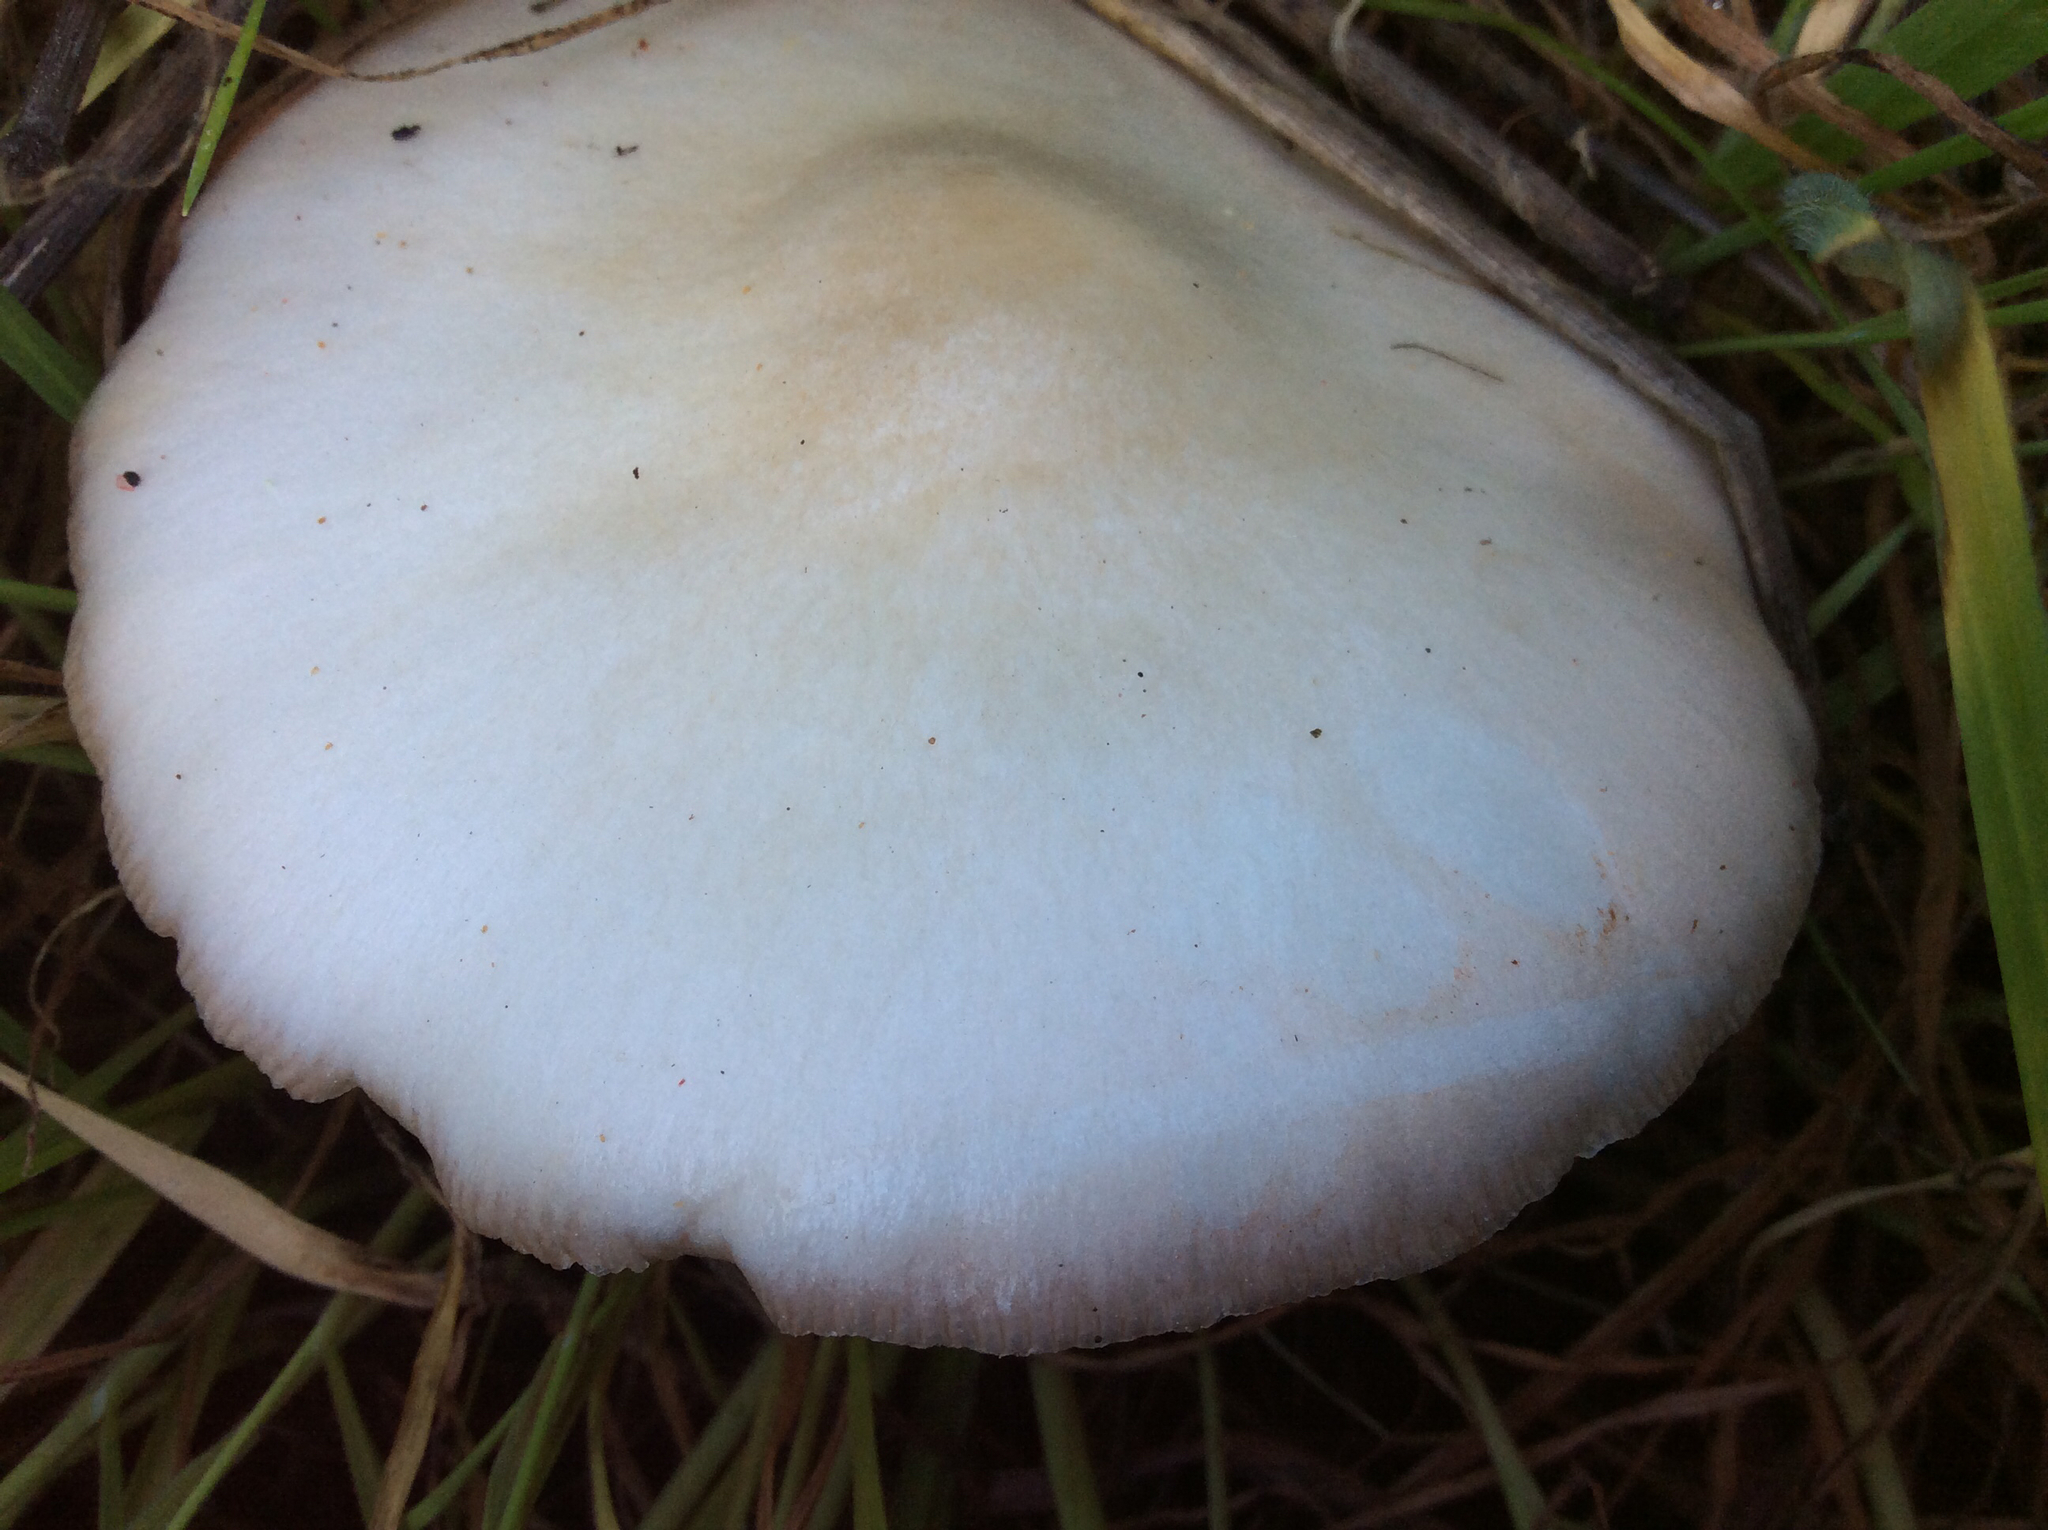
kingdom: Fungi
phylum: Basidiomycota
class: Agaricomycetes
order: Agaricales
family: Pluteaceae
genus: Volvopluteus
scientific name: Volvopluteus gloiocephalus
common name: Stubble rosegill
